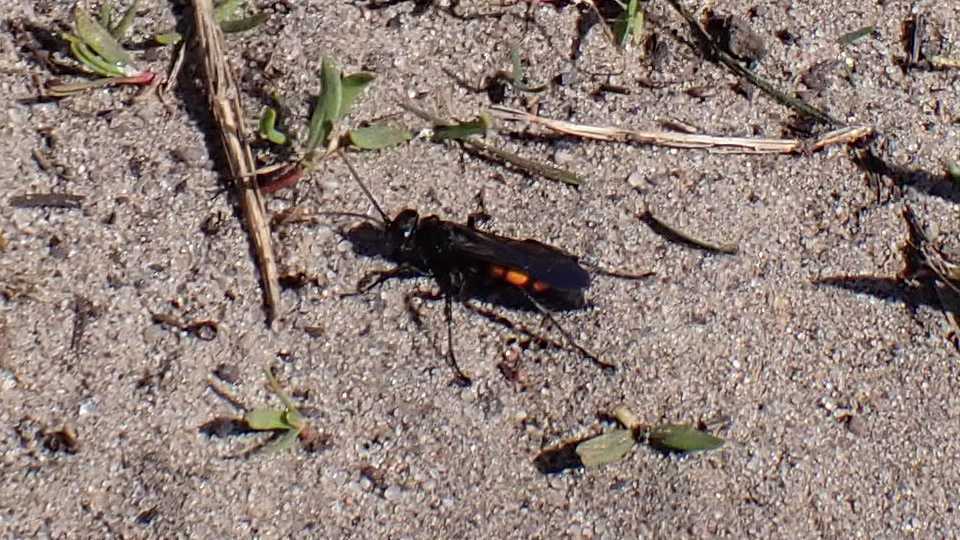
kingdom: Animalia
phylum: Arthropoda
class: Insecta
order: Hymenoptera
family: Pompilidae
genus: Anoplius
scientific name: Anoplius viaticus
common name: Black banded spider wasp
